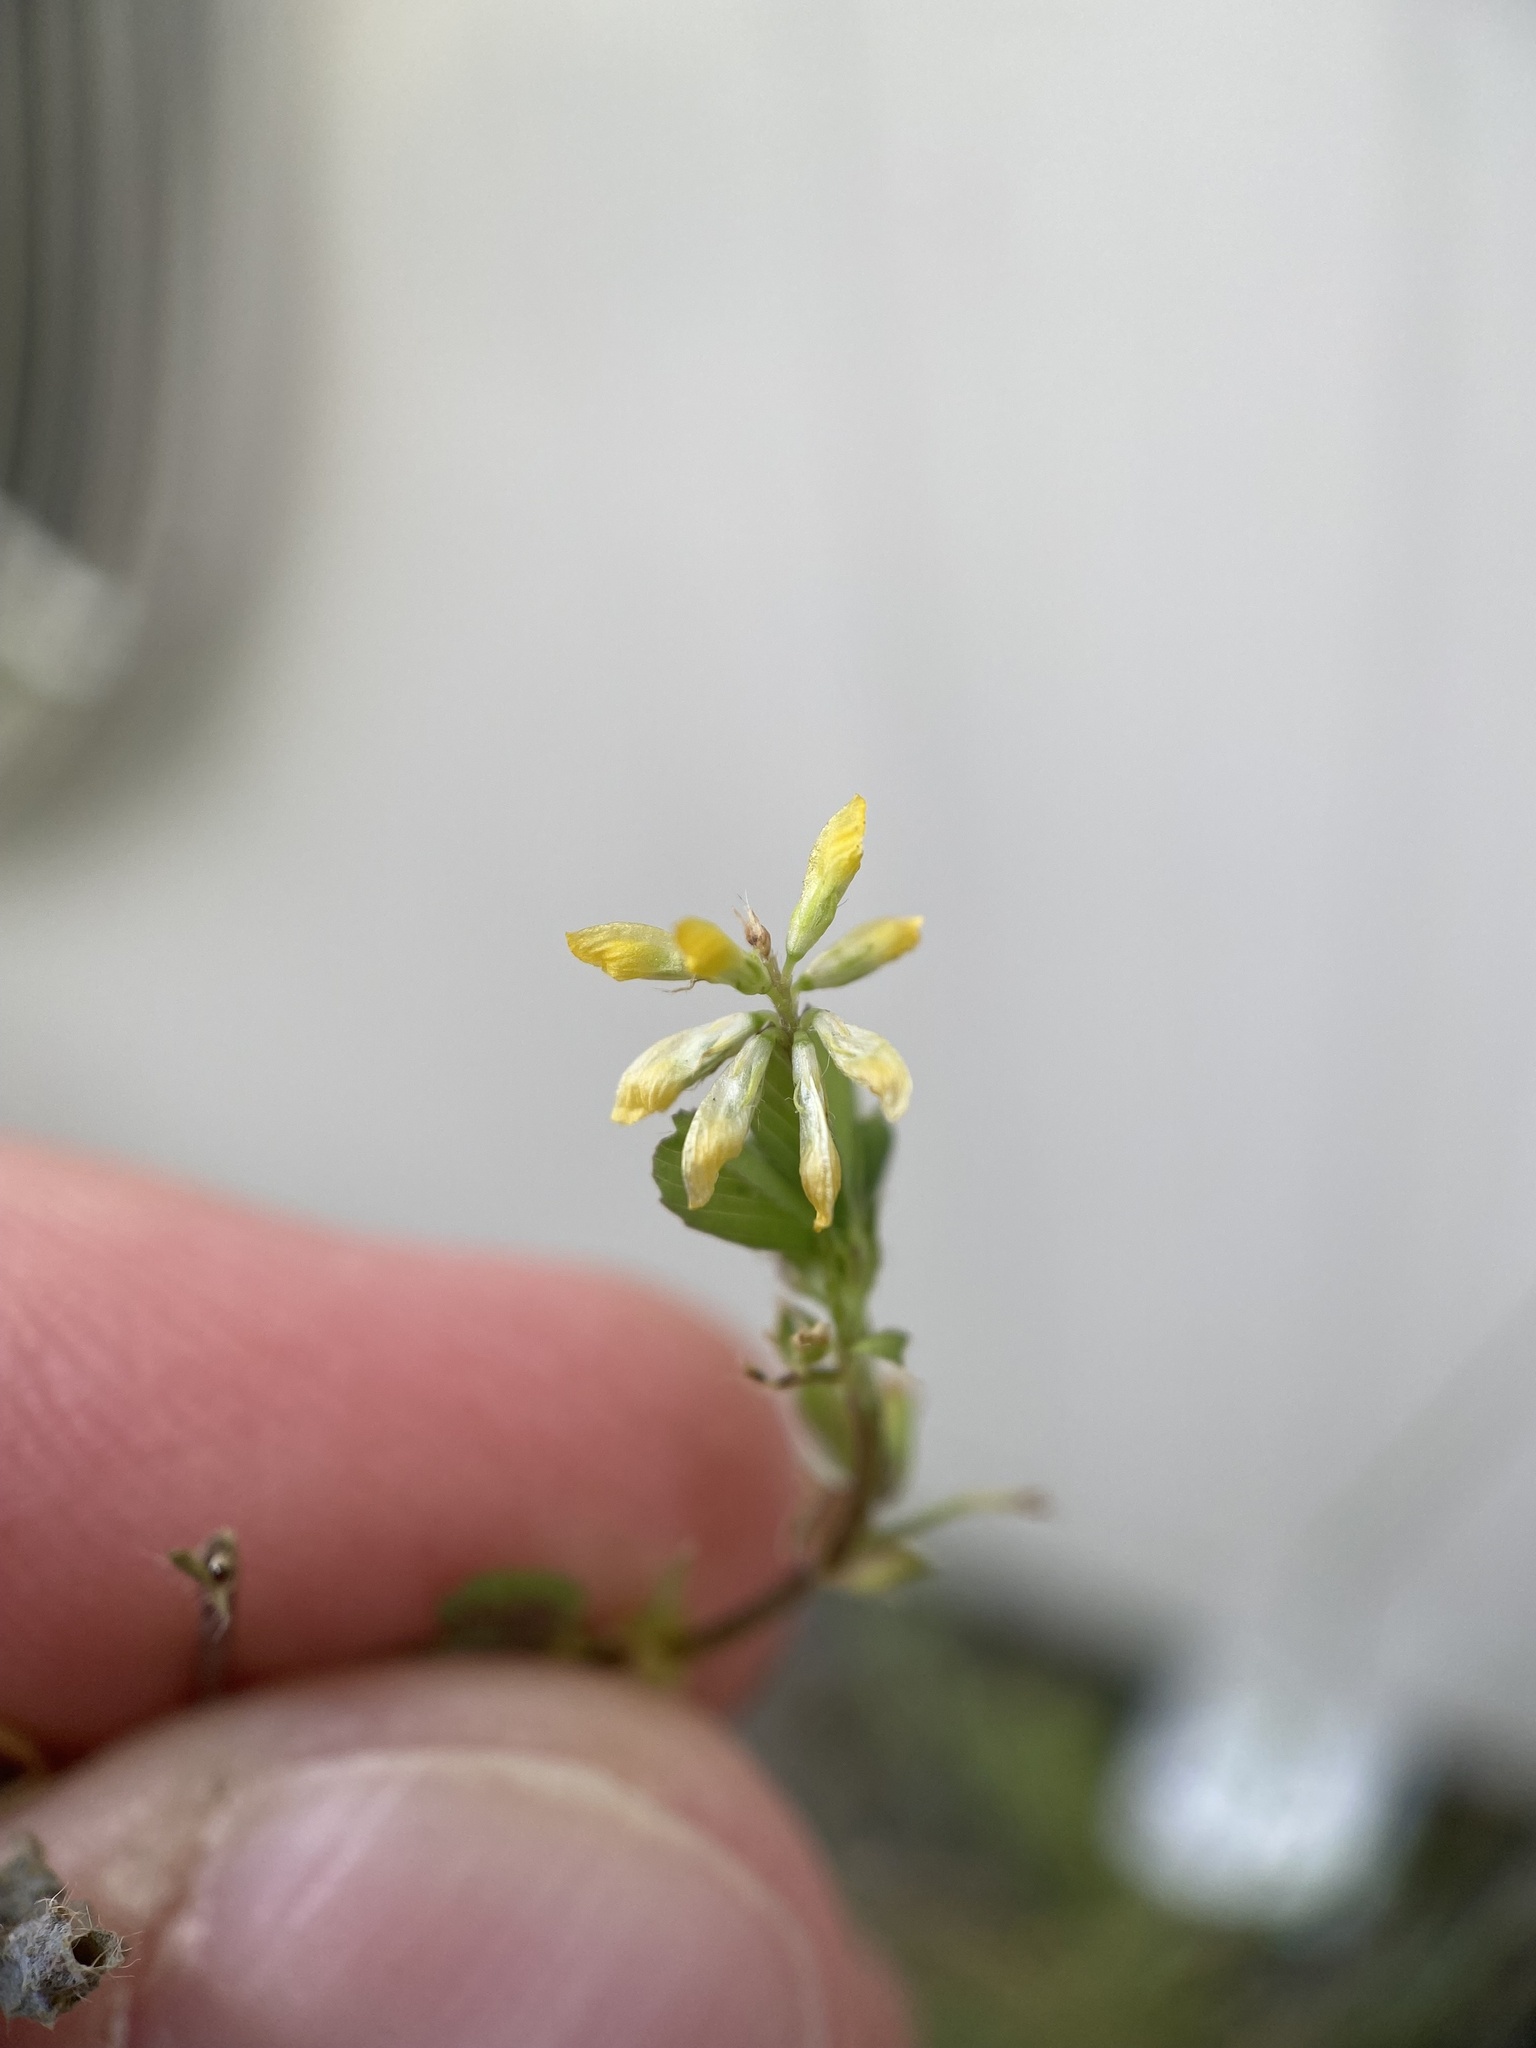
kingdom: Plantae
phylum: Tracheophyta
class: Magnoliopsida
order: Fabales
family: Fabaceae
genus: Trifolium
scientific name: Trifolium dubium
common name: Suckling clover
